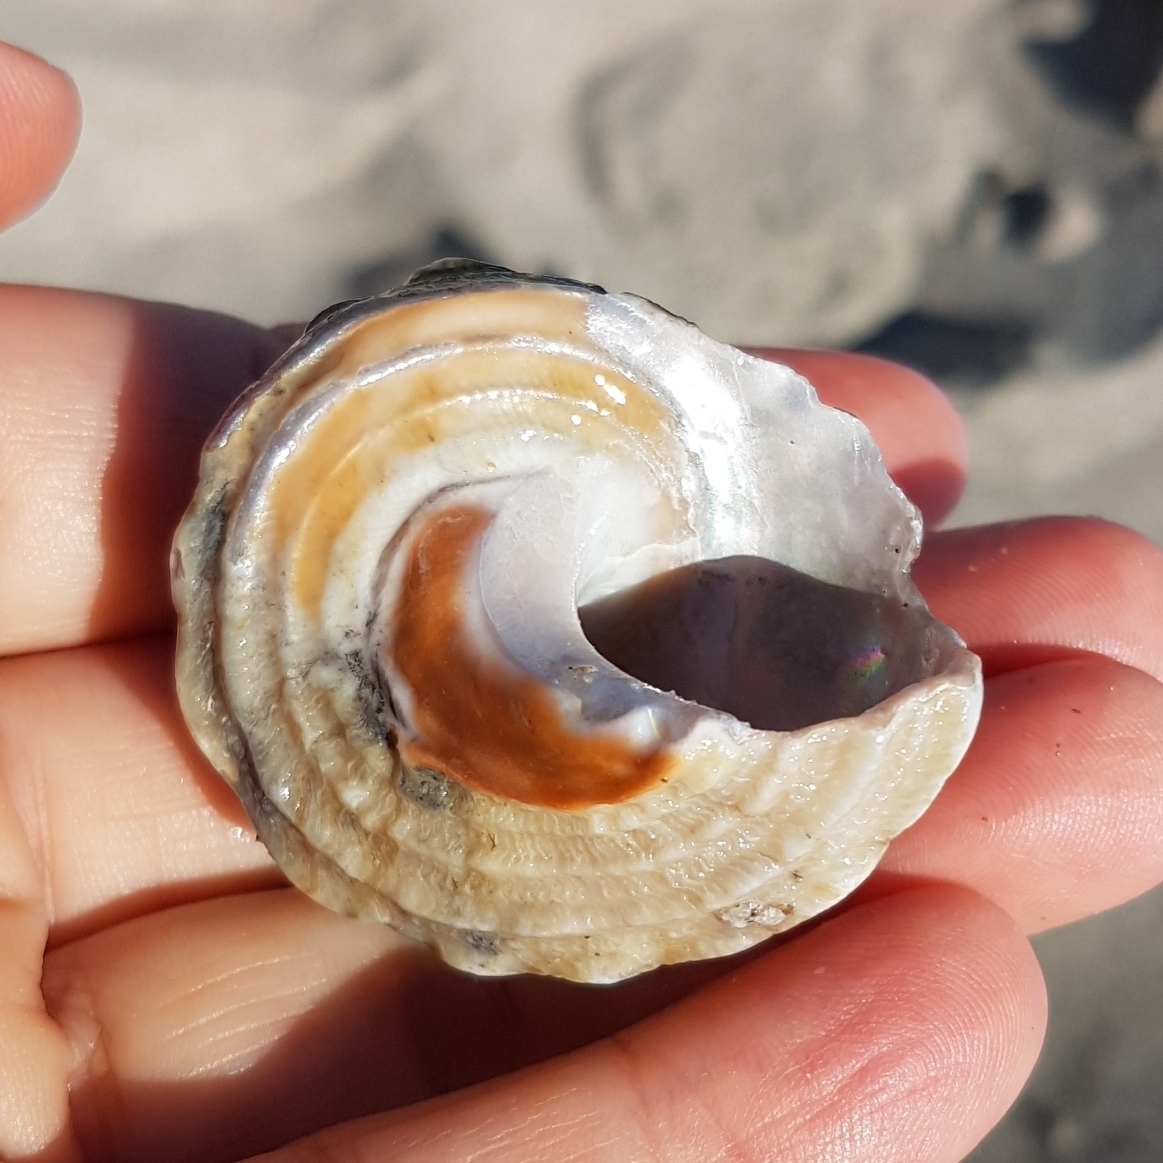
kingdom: Animalia
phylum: Mollusca
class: Gastropoda
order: Trochida
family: Turbinidae
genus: Bolma
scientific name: Bolma rugosa
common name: Rough star shell
